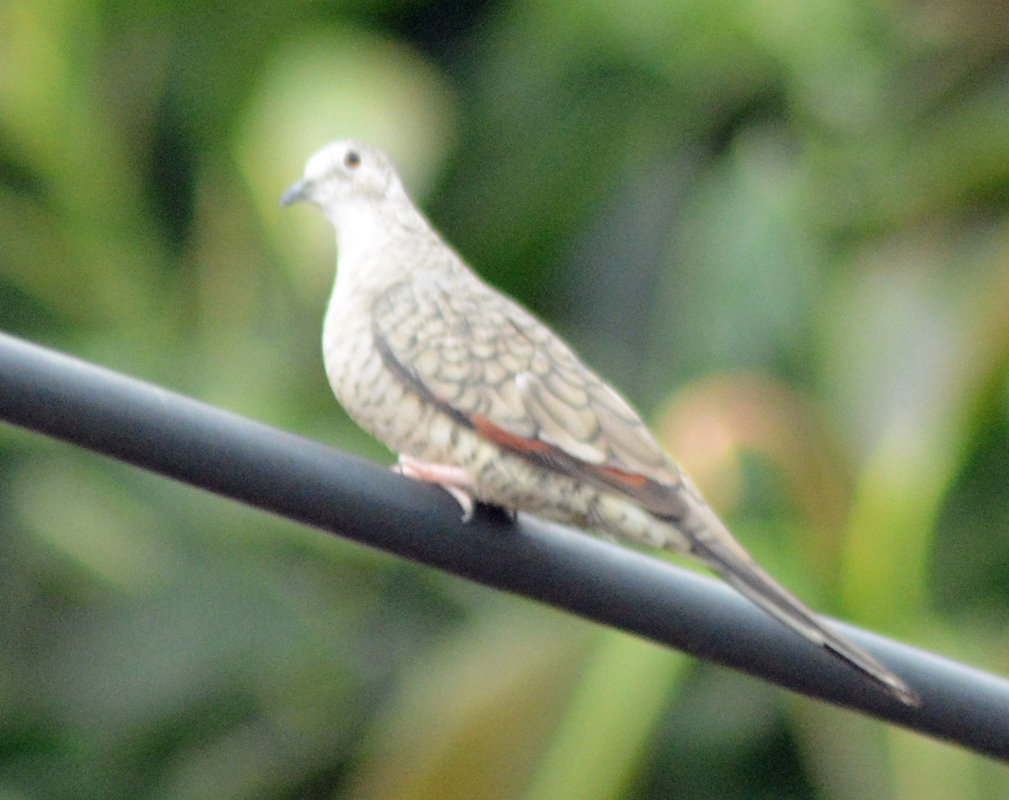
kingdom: Animalia
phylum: Chordata
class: Aves
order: Columbiformes
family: Columbidae
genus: Columbina
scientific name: Columbina inca
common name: Inca dove
